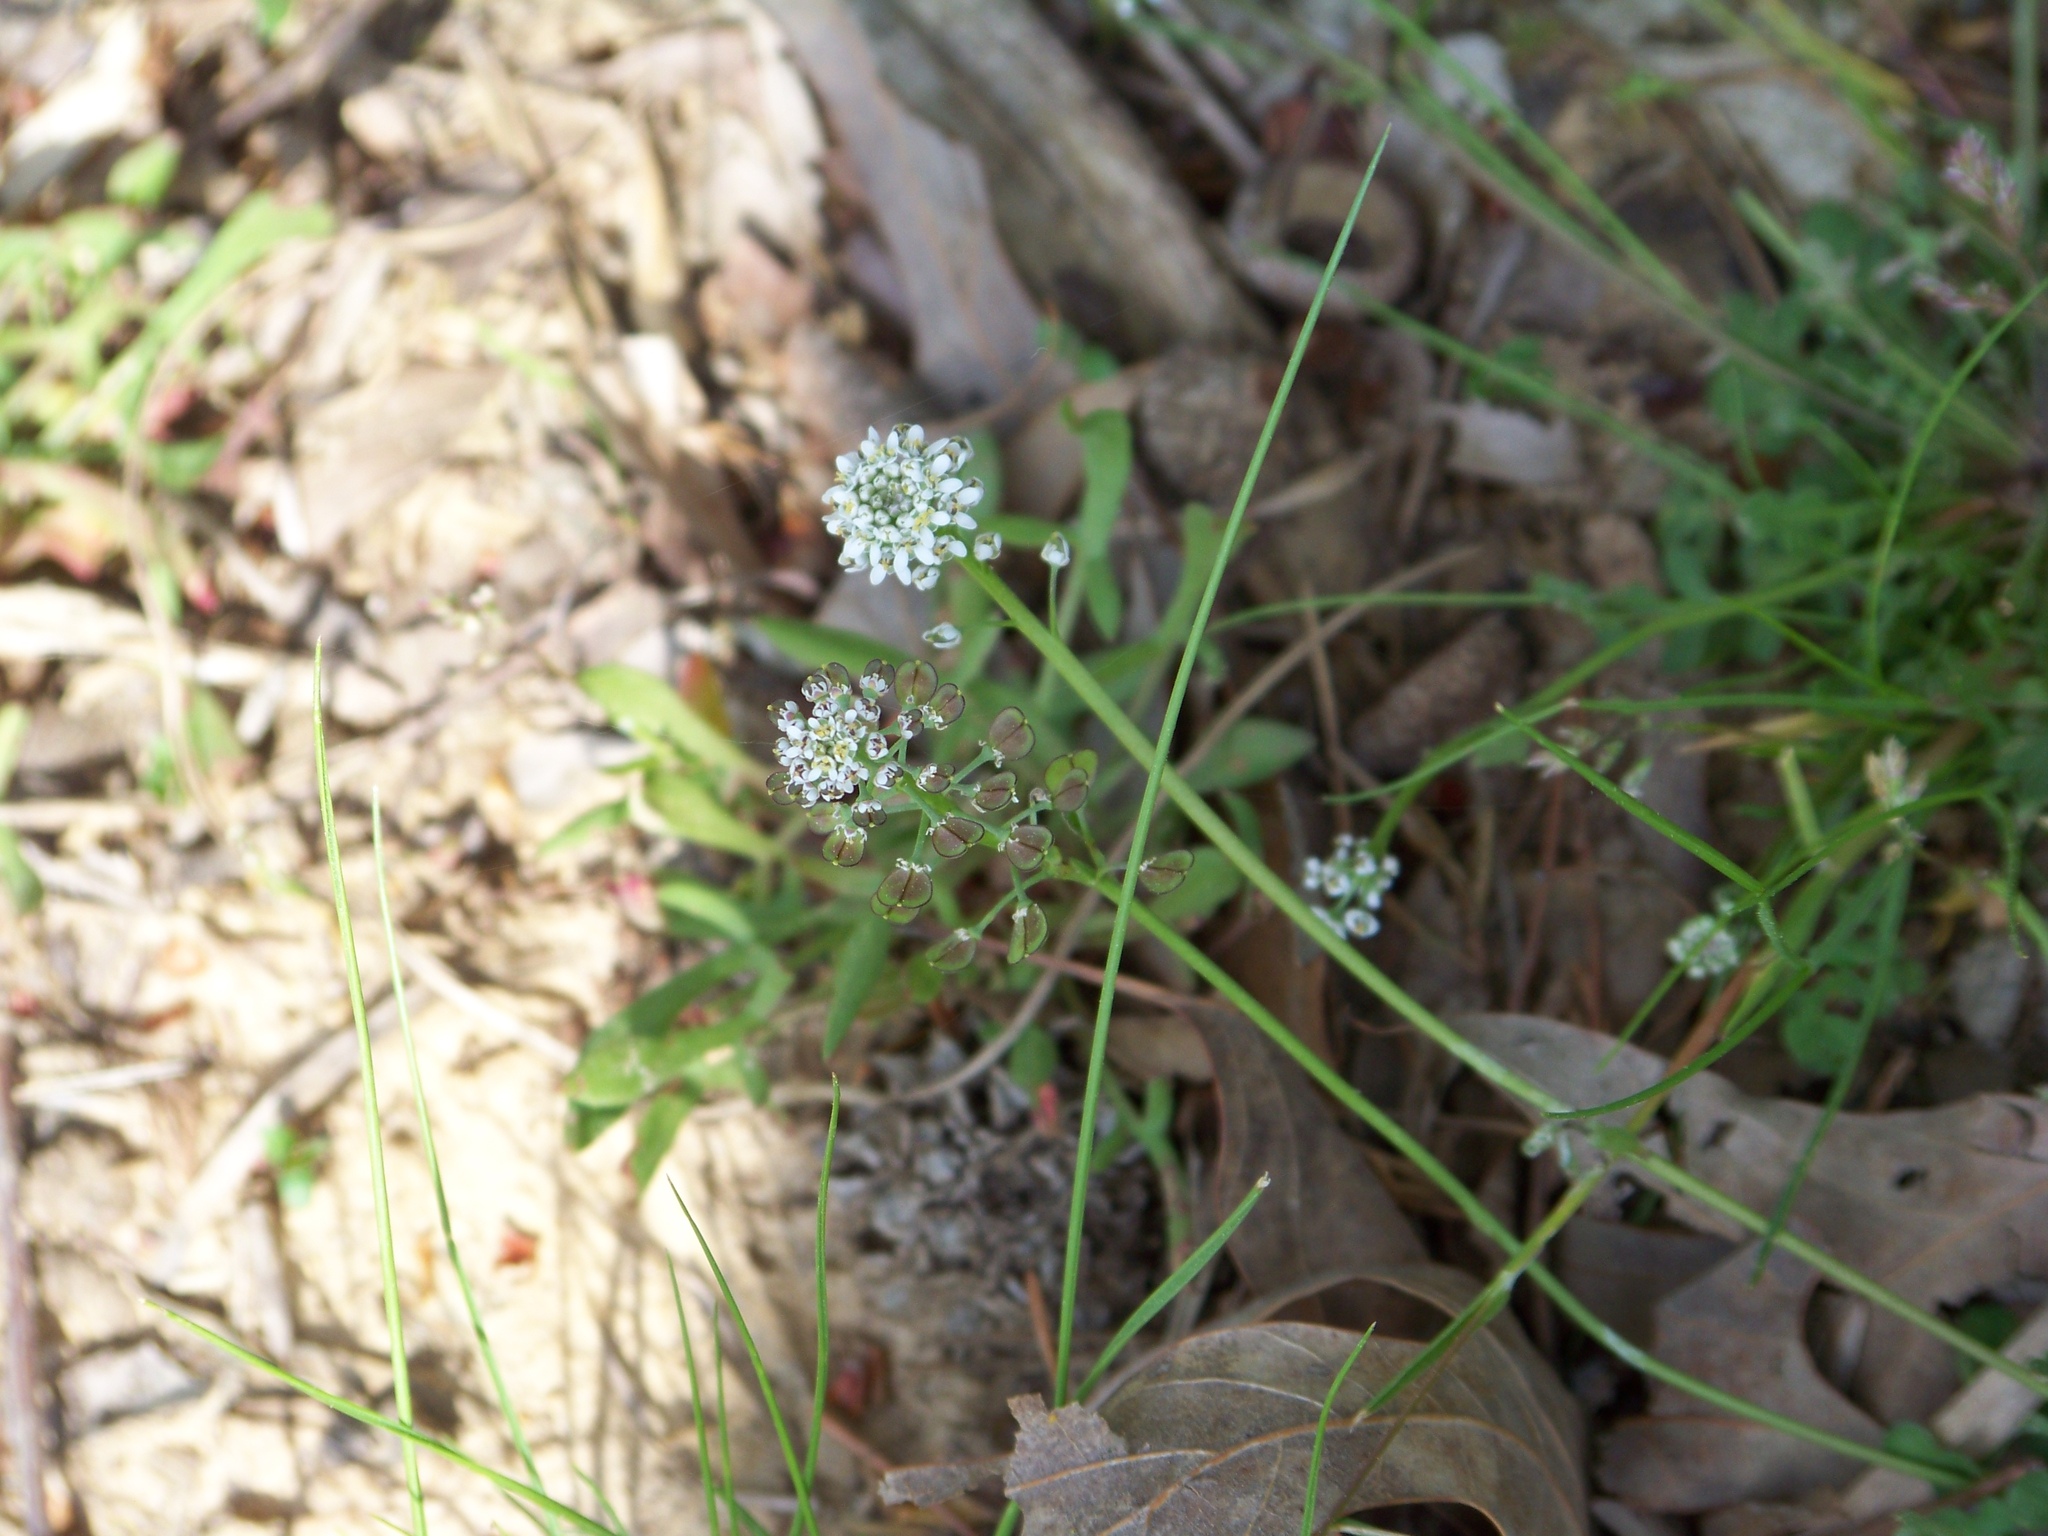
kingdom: Plantae
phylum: Tracheophyta
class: Magnoliopsida
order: Brassicales
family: Brassicaceae
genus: Teesdalia
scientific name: Teesdalia nudicaulis
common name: Shepherd's cress
